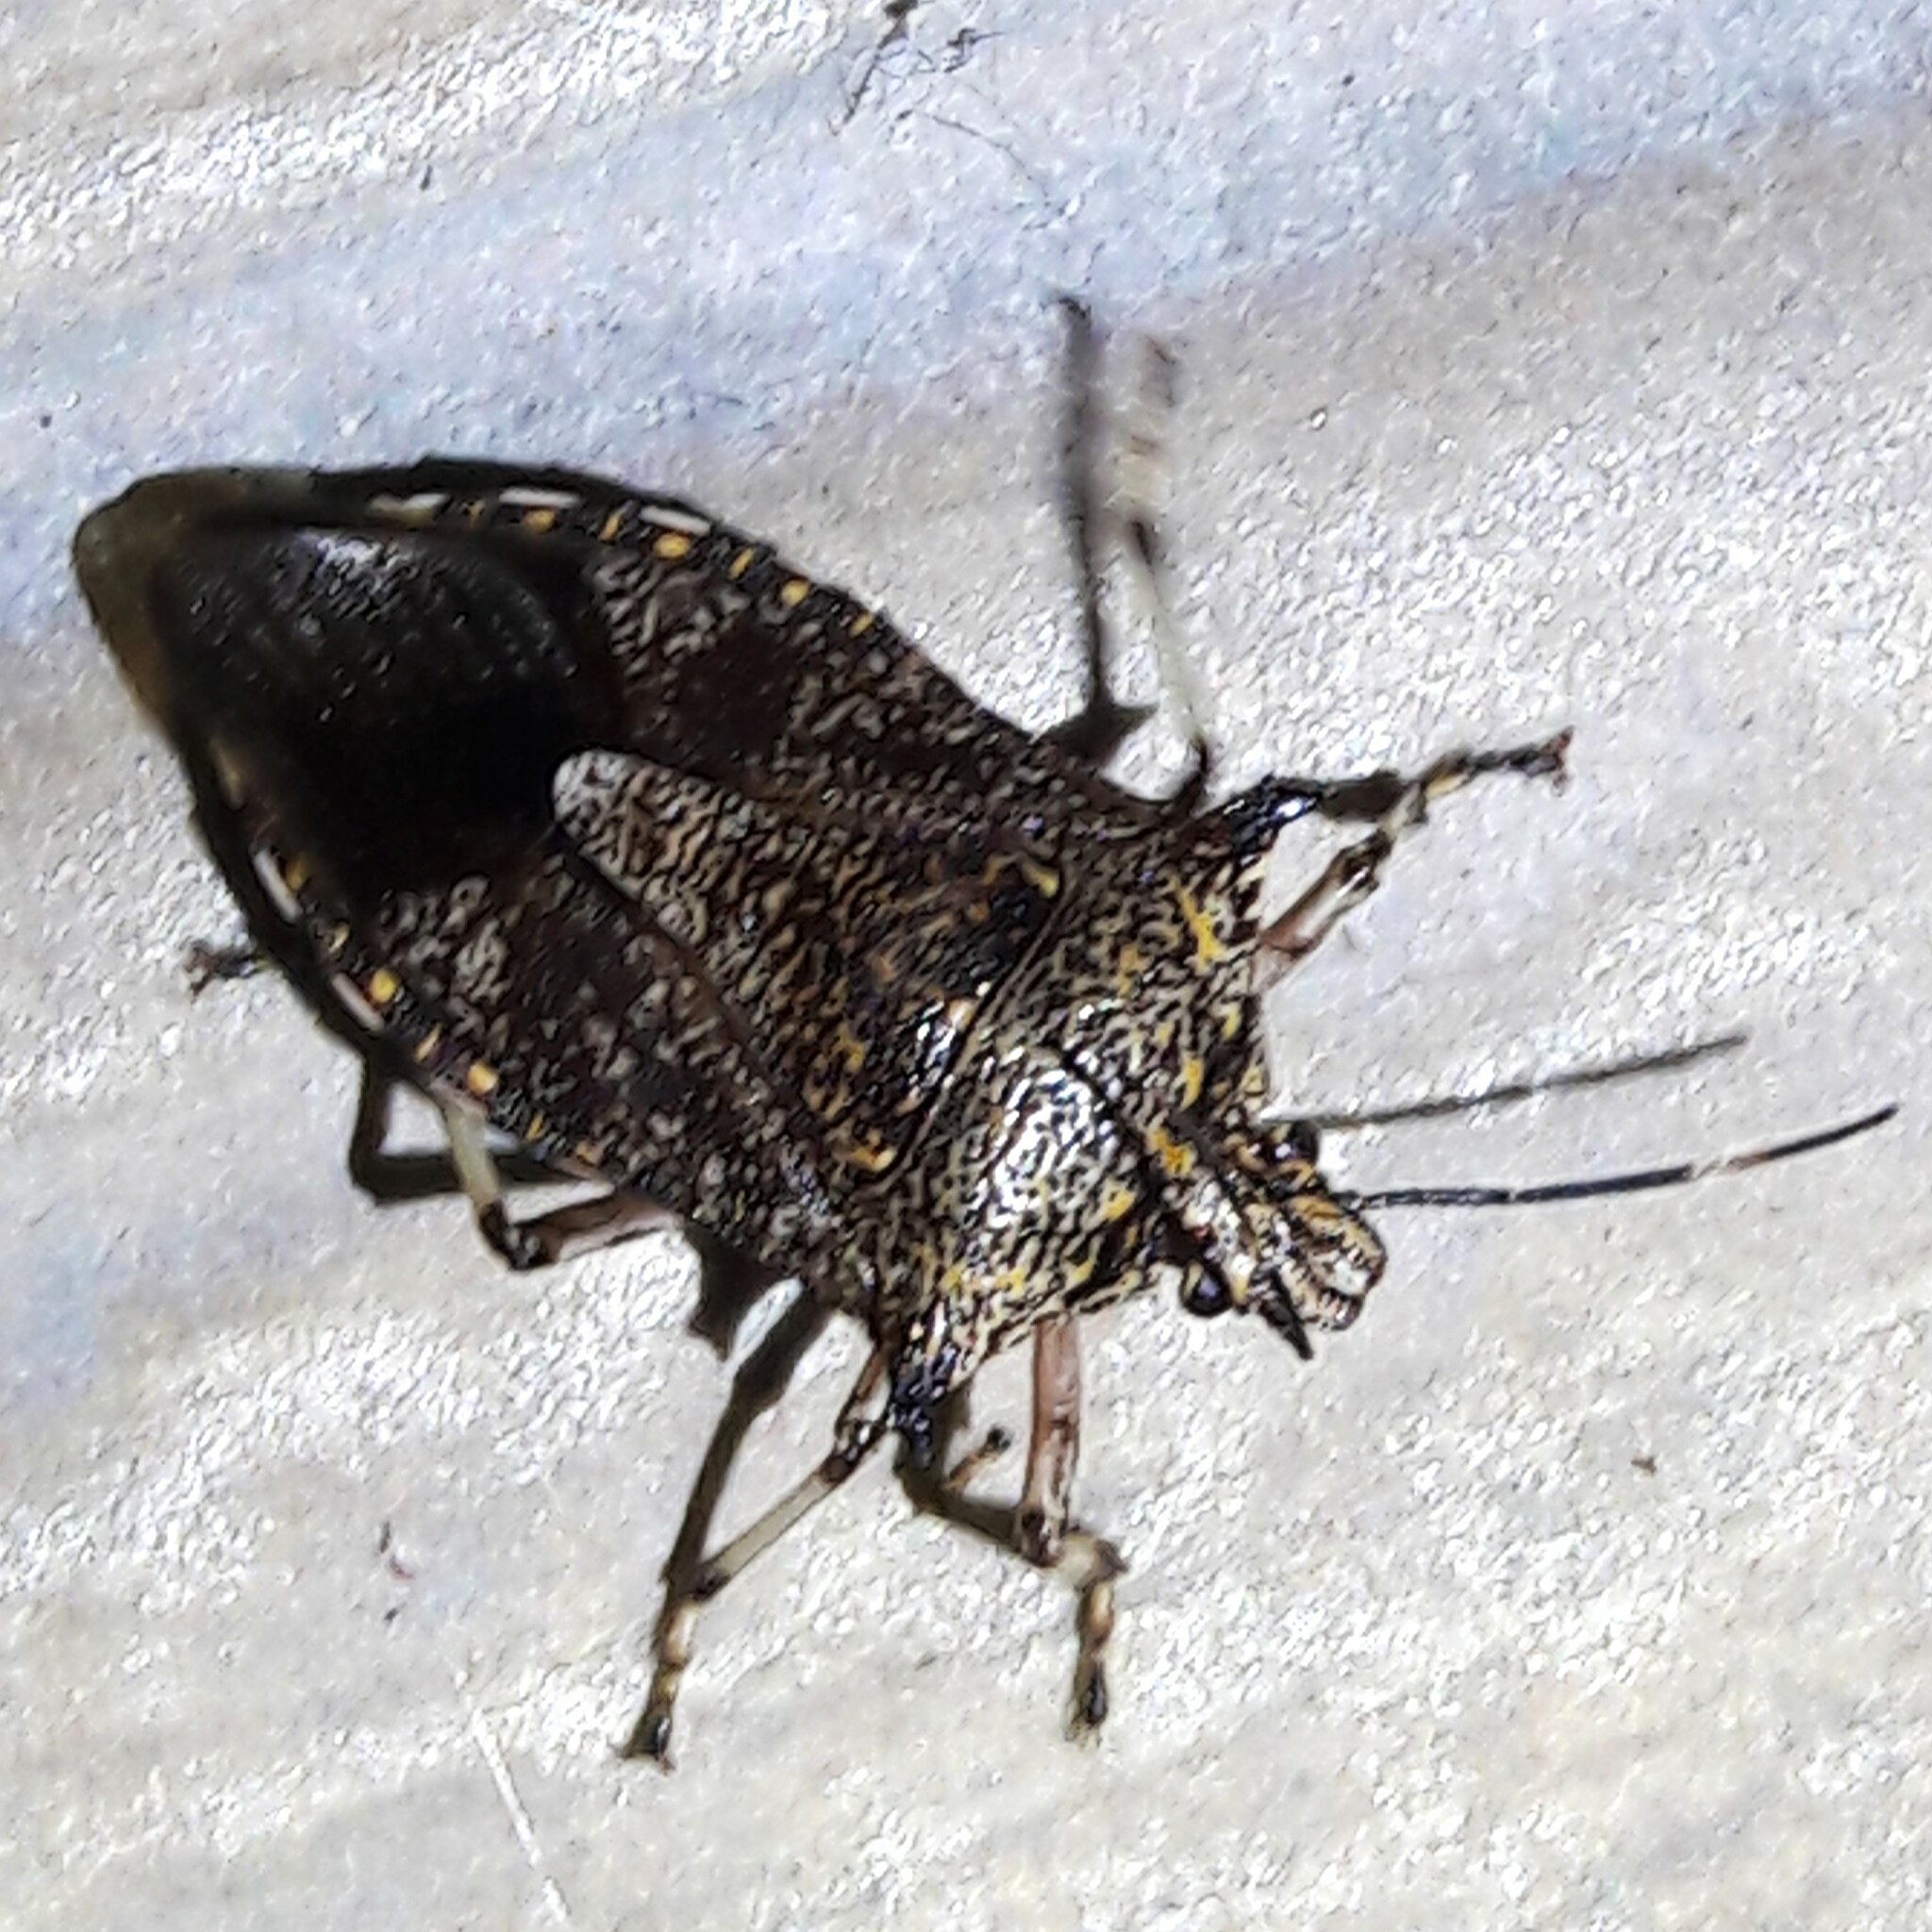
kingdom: Animalia
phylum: Arthropoda
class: Insecta
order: Hemiptera
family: Pentatomidae
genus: Alcaeorrhynchus
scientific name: Alcaeorrhynchus grandis
